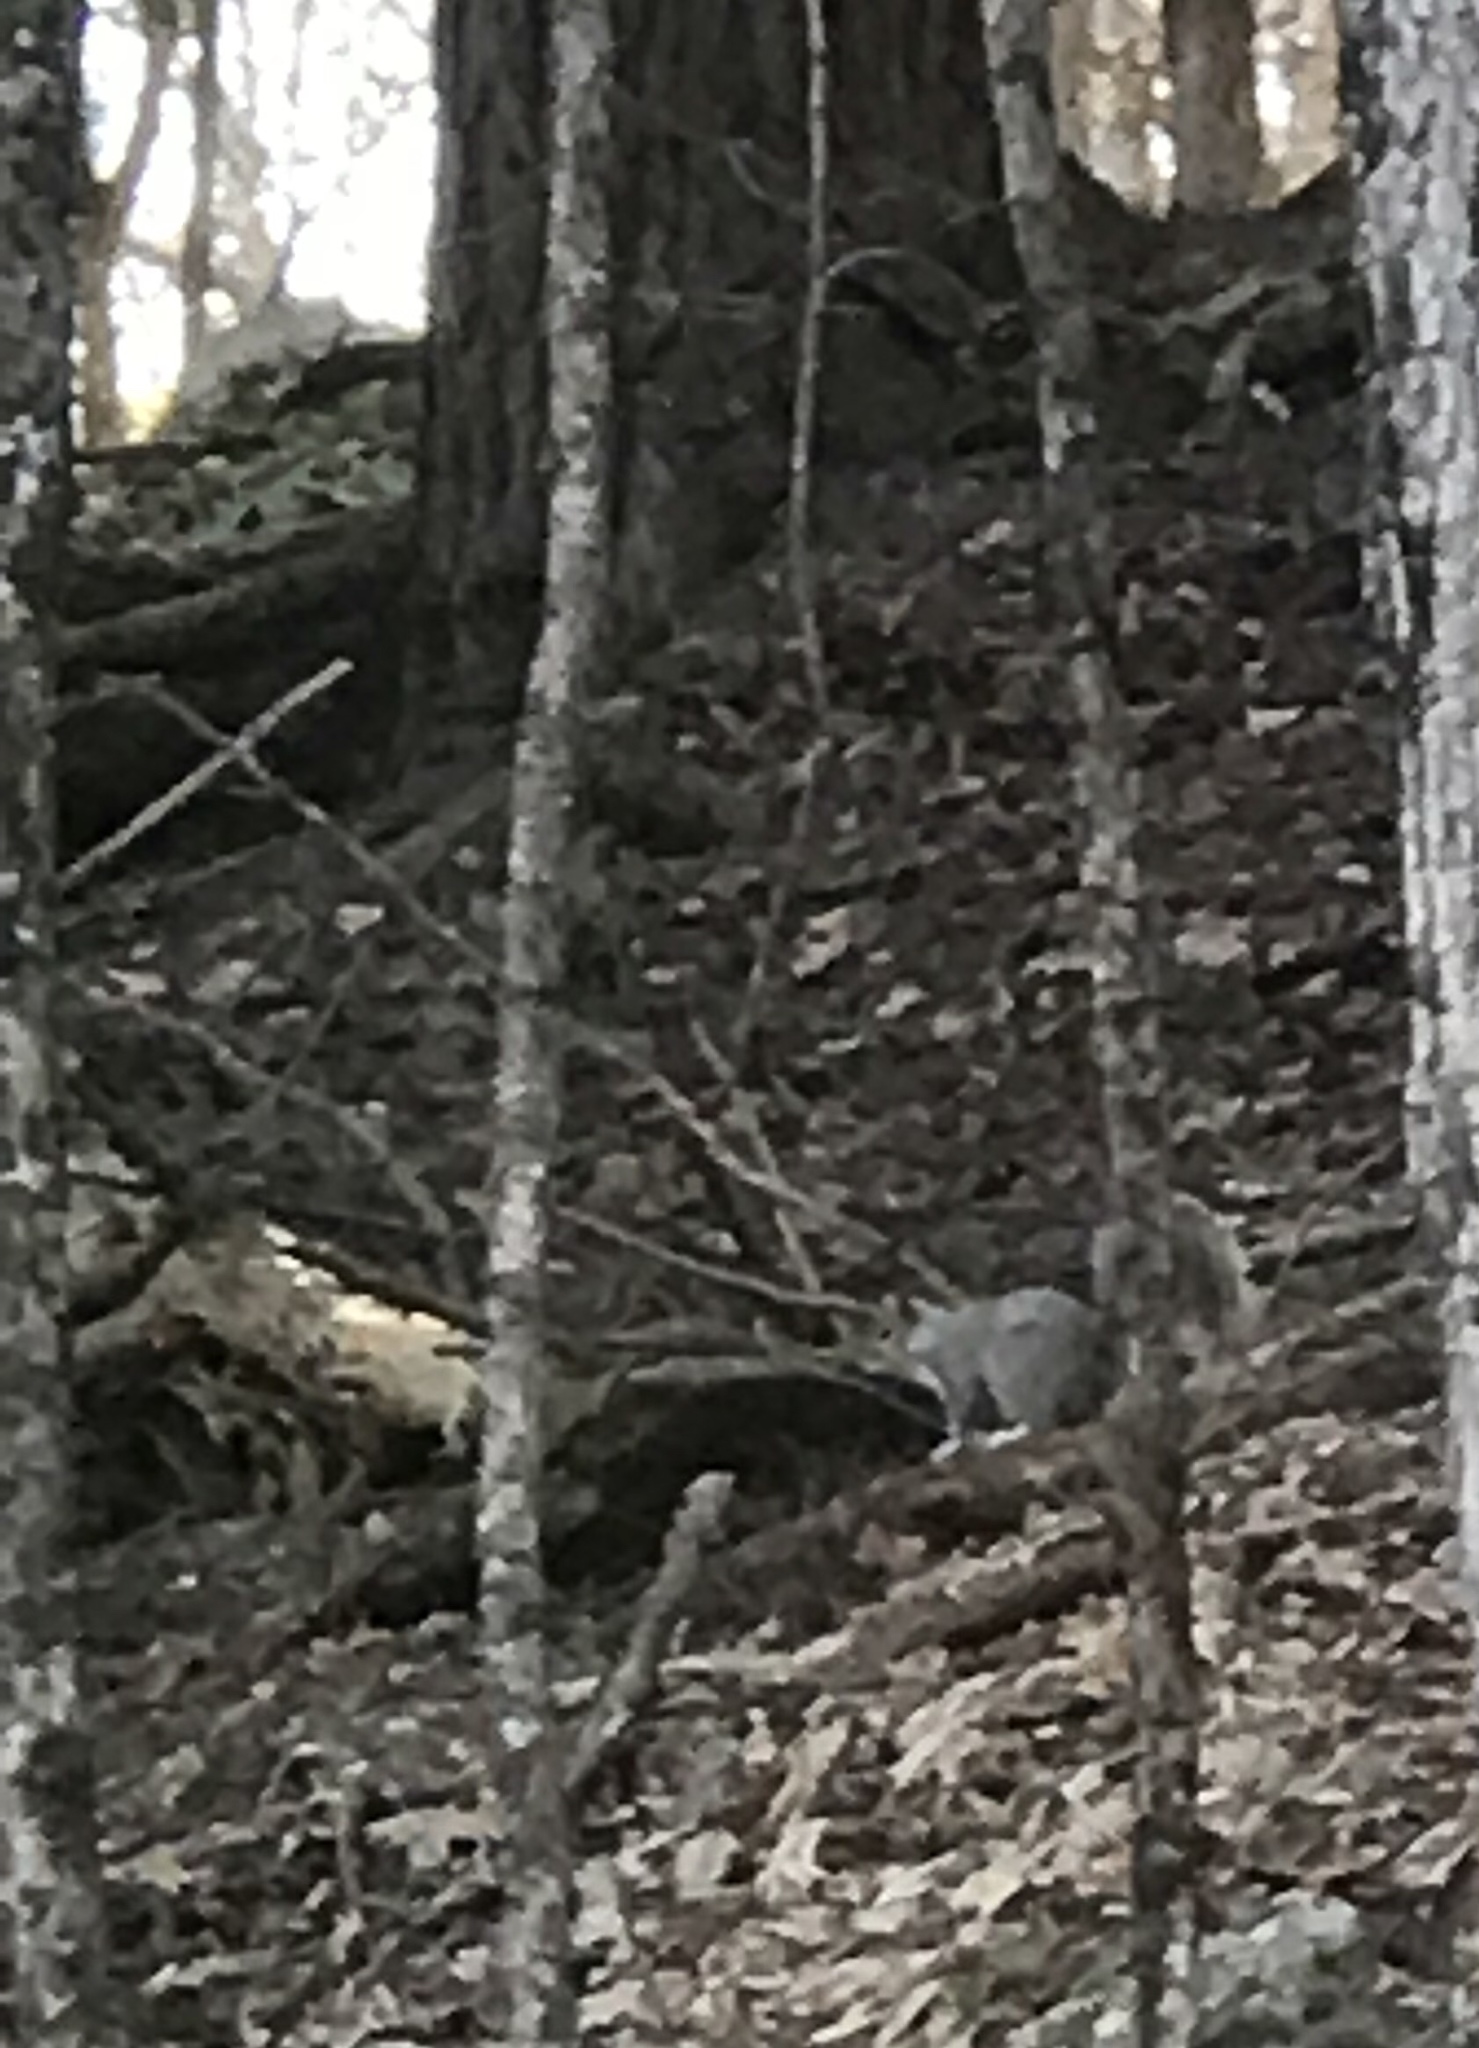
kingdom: Animalia
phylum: Chordata
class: Mammalia
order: Rodentia
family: Sciuridae
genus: Sciurus
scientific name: Sciurus carolinensis
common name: Eastern gray squirrel
